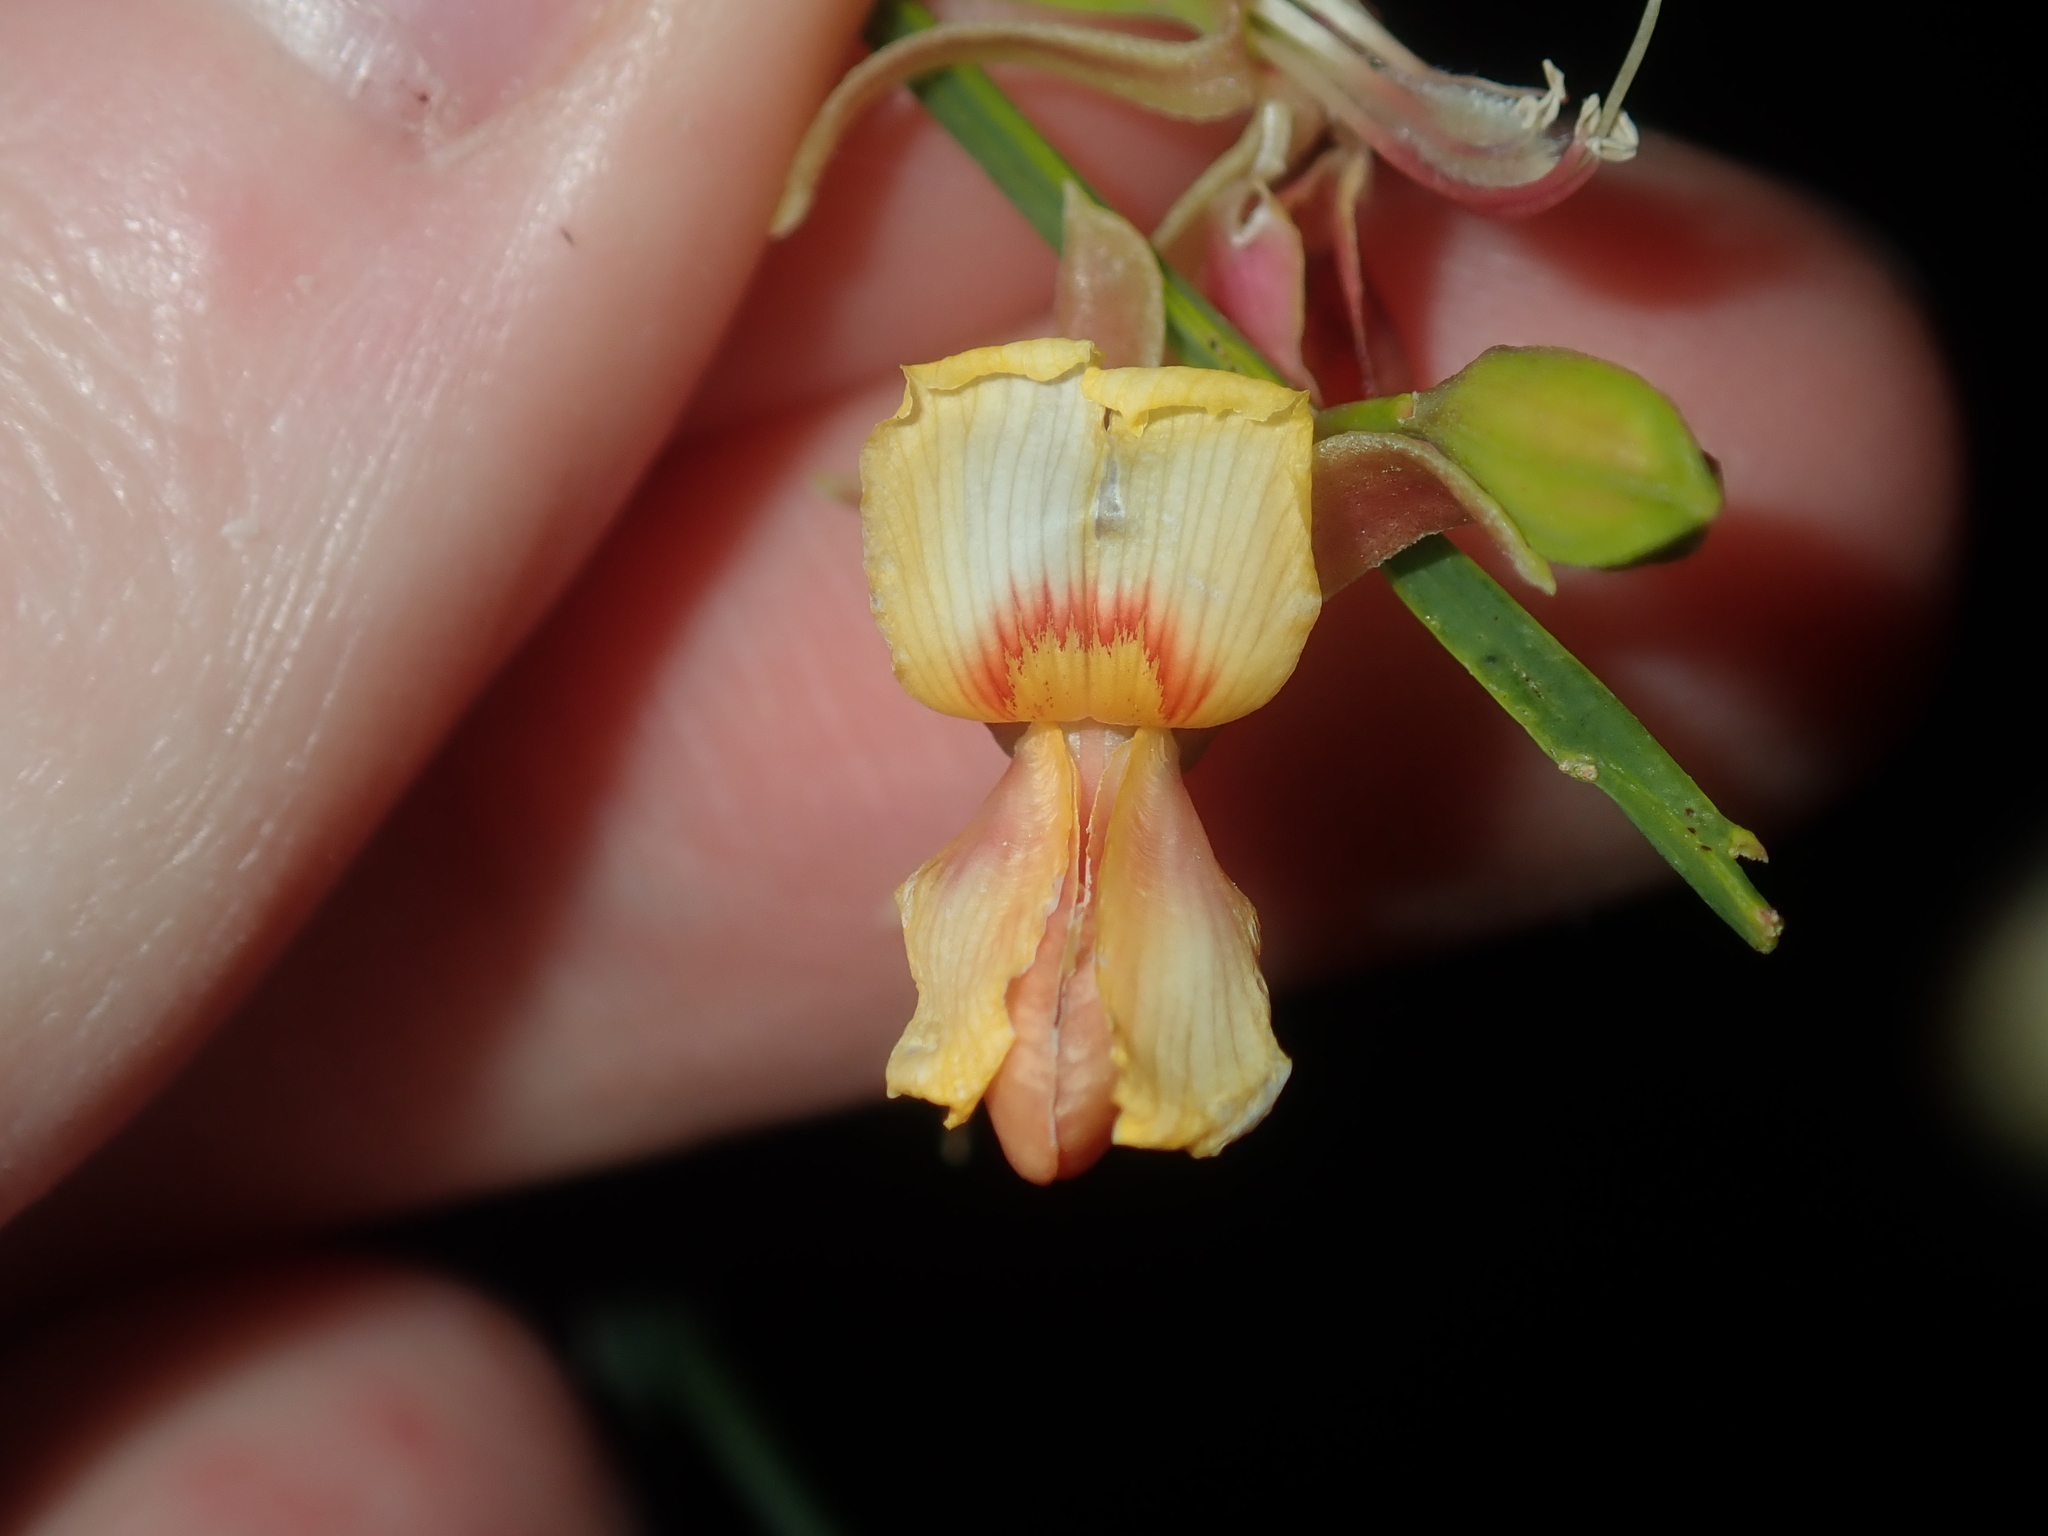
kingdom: Plantae
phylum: Tracheophyta
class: Magnoliopsida
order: Fabales
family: Fabaceae
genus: Jacksonia
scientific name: Jacksonia sternbergiana
